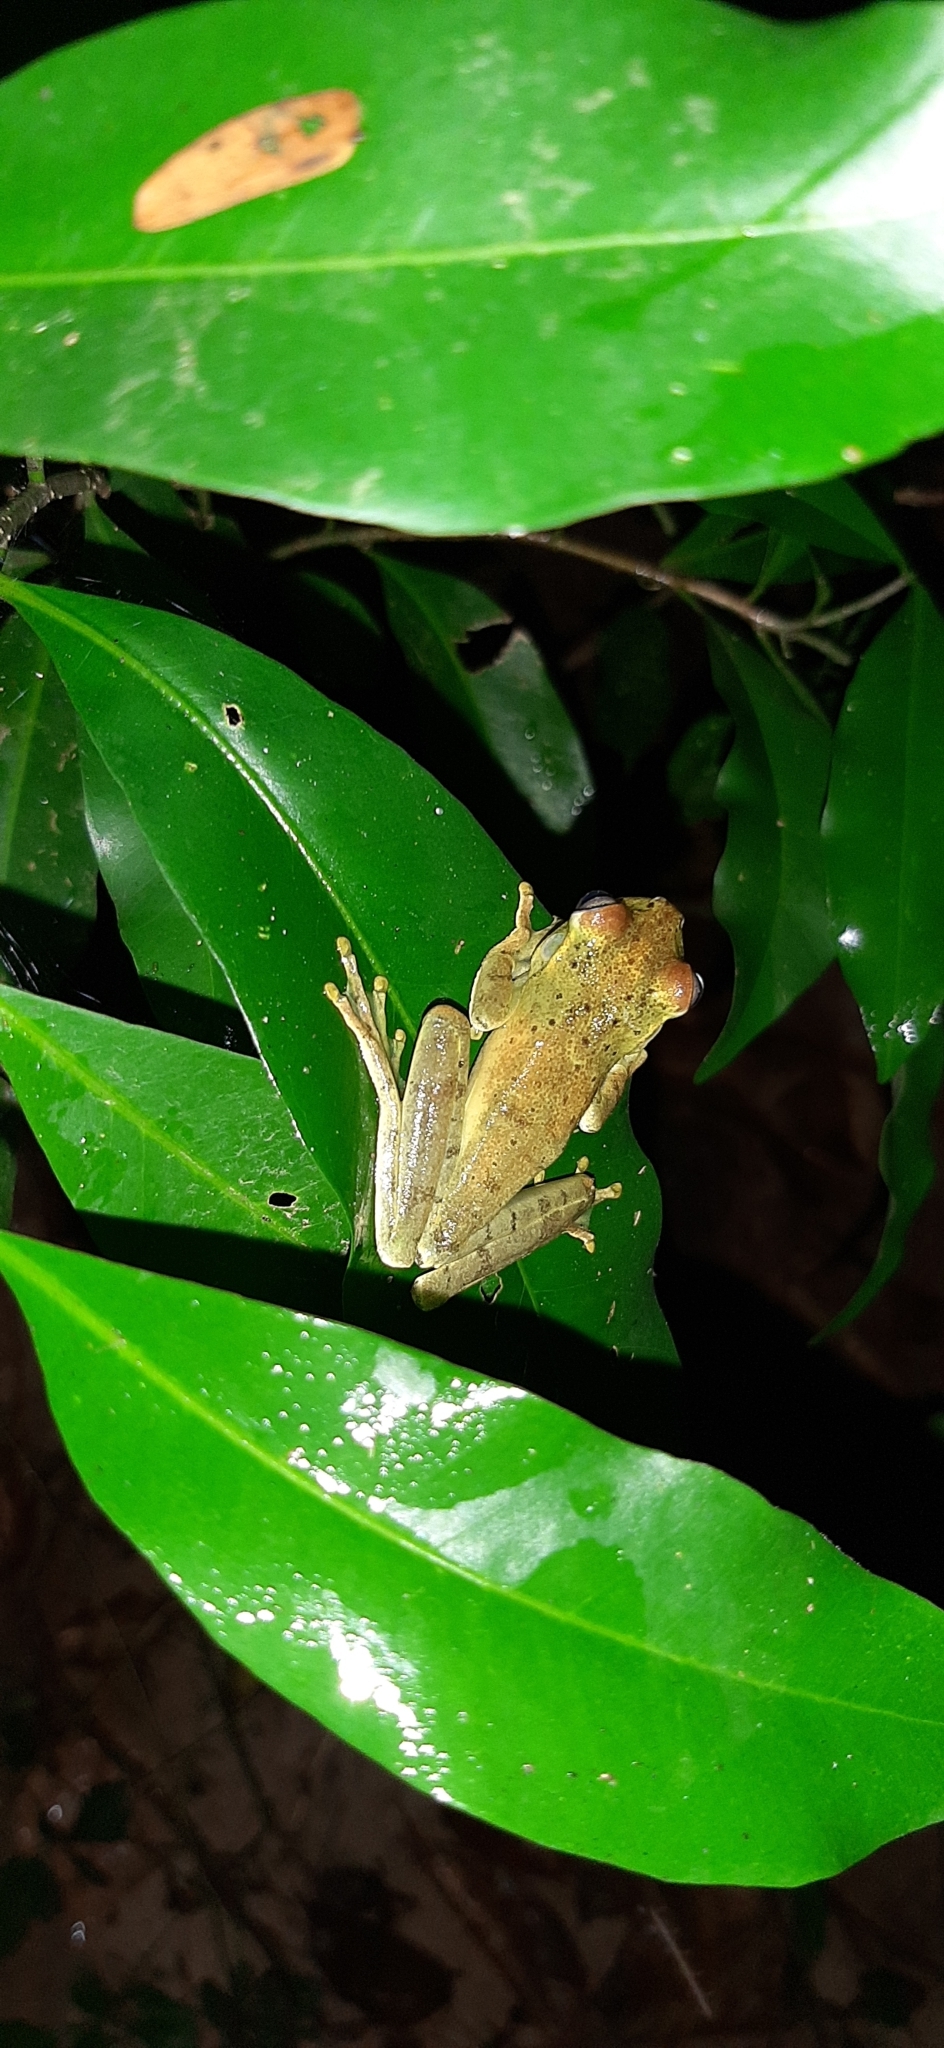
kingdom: Animalia
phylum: Chordata
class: Amphibia
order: Anura
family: Hylidae
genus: Boana
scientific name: Boana pugnax
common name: Chirique-flusse treefrog
